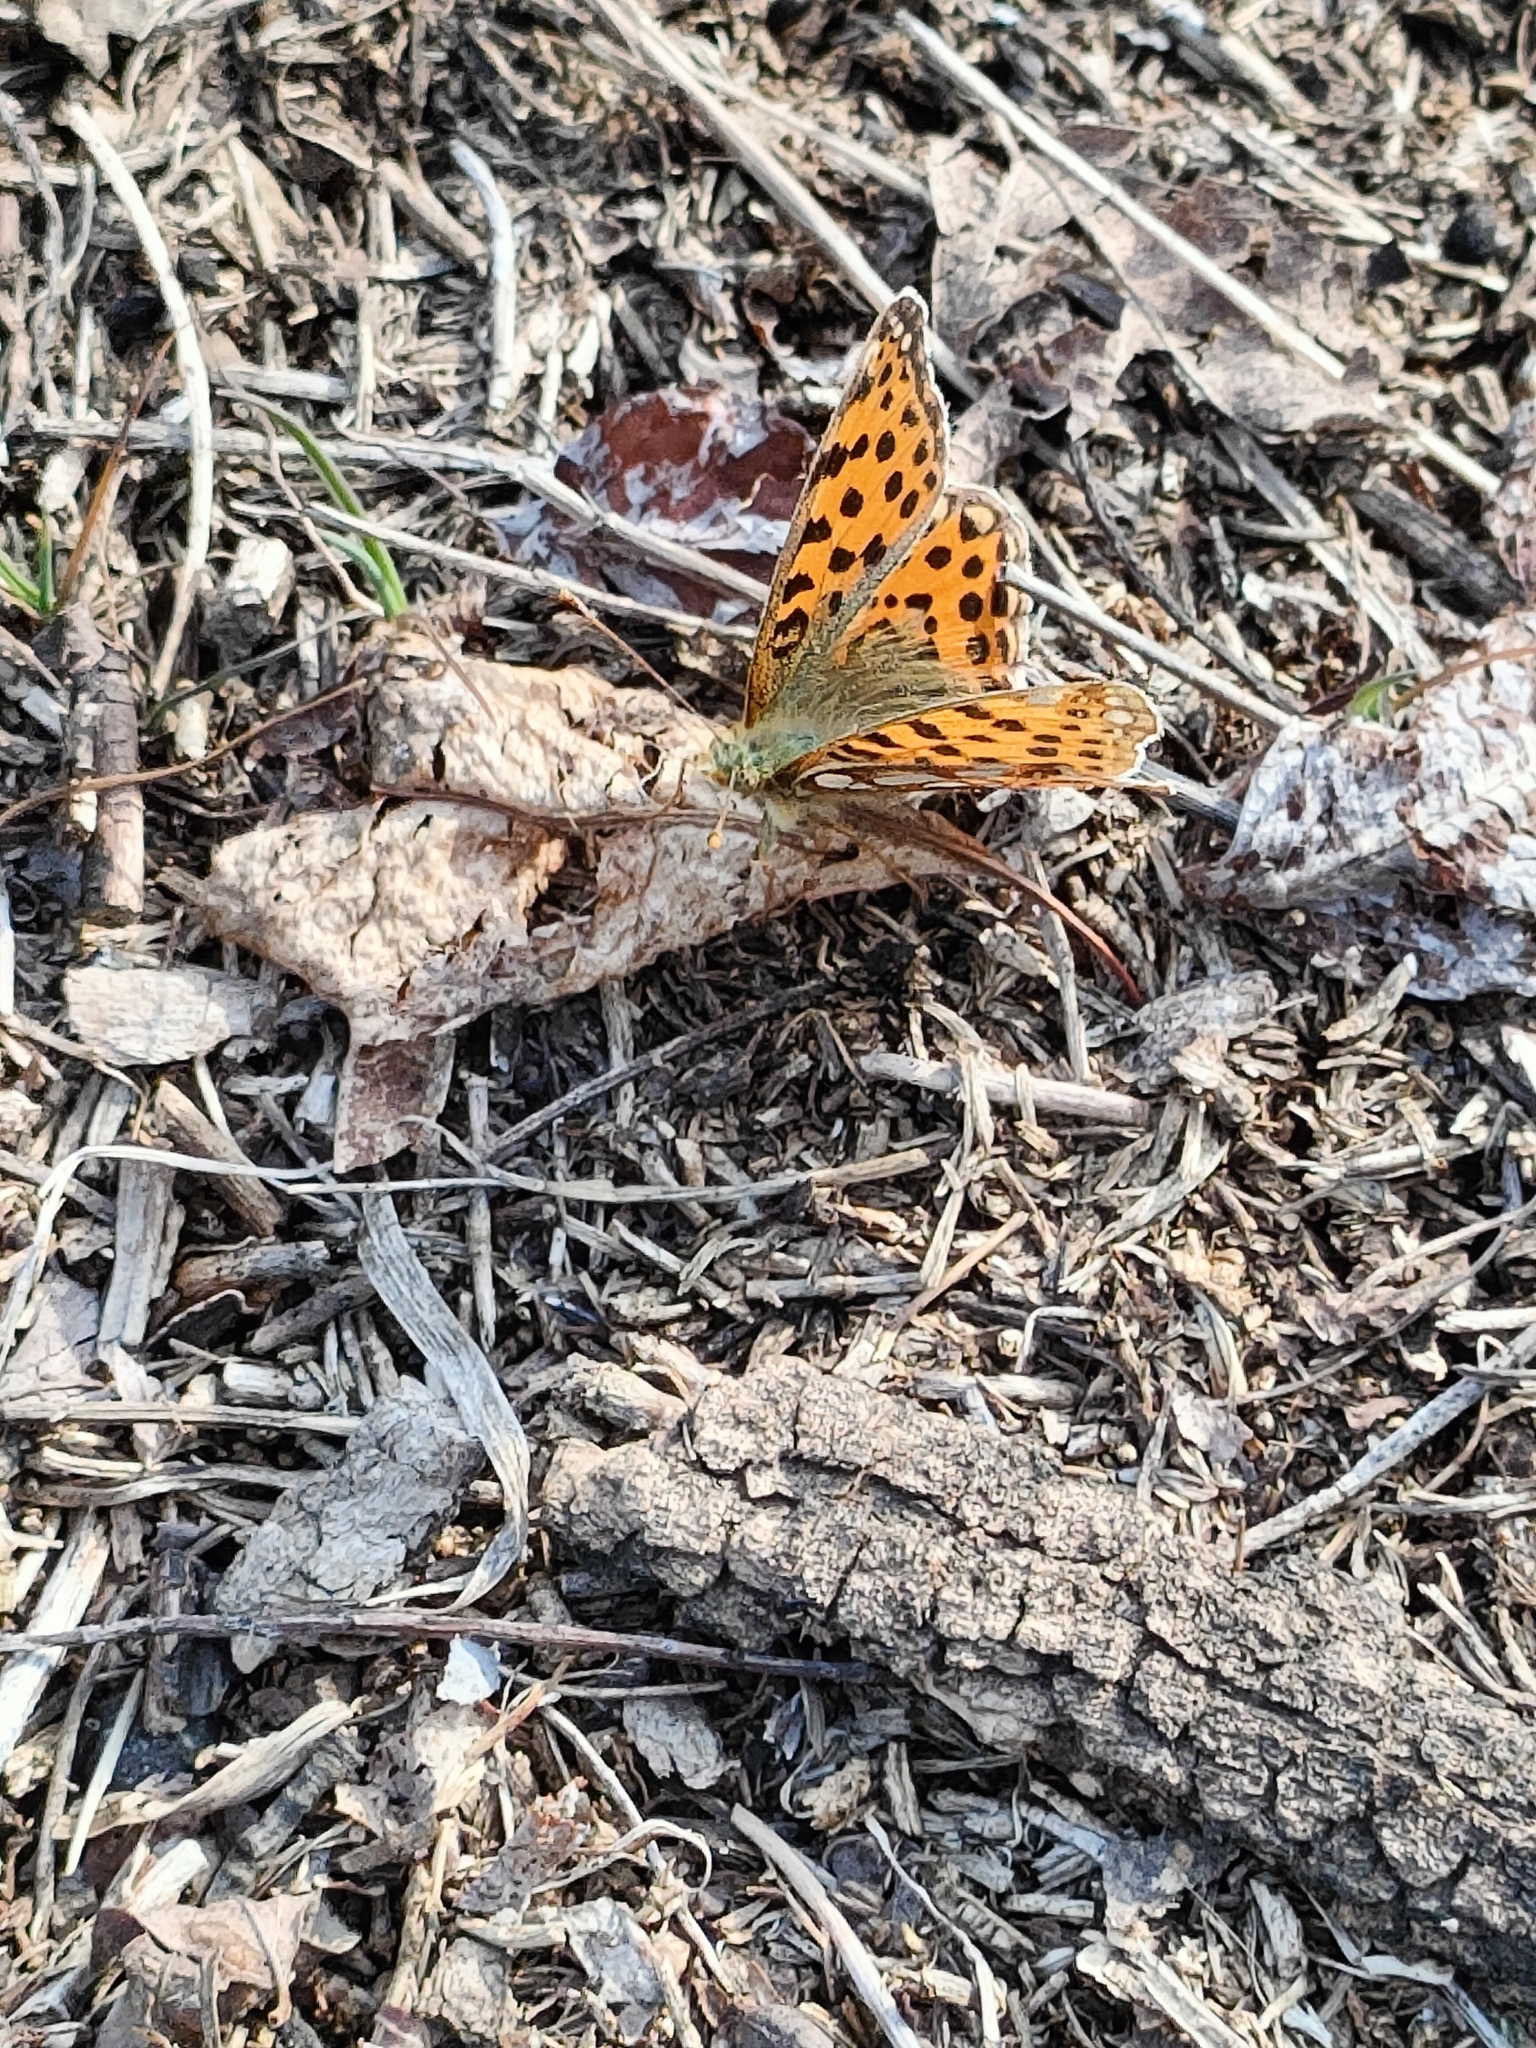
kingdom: Animalia
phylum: Arthropoda
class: Insecta
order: Lepidoptera
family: Nymphalidae
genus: Issoria
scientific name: Issoria lathonia
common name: Queen of spain fritillary
